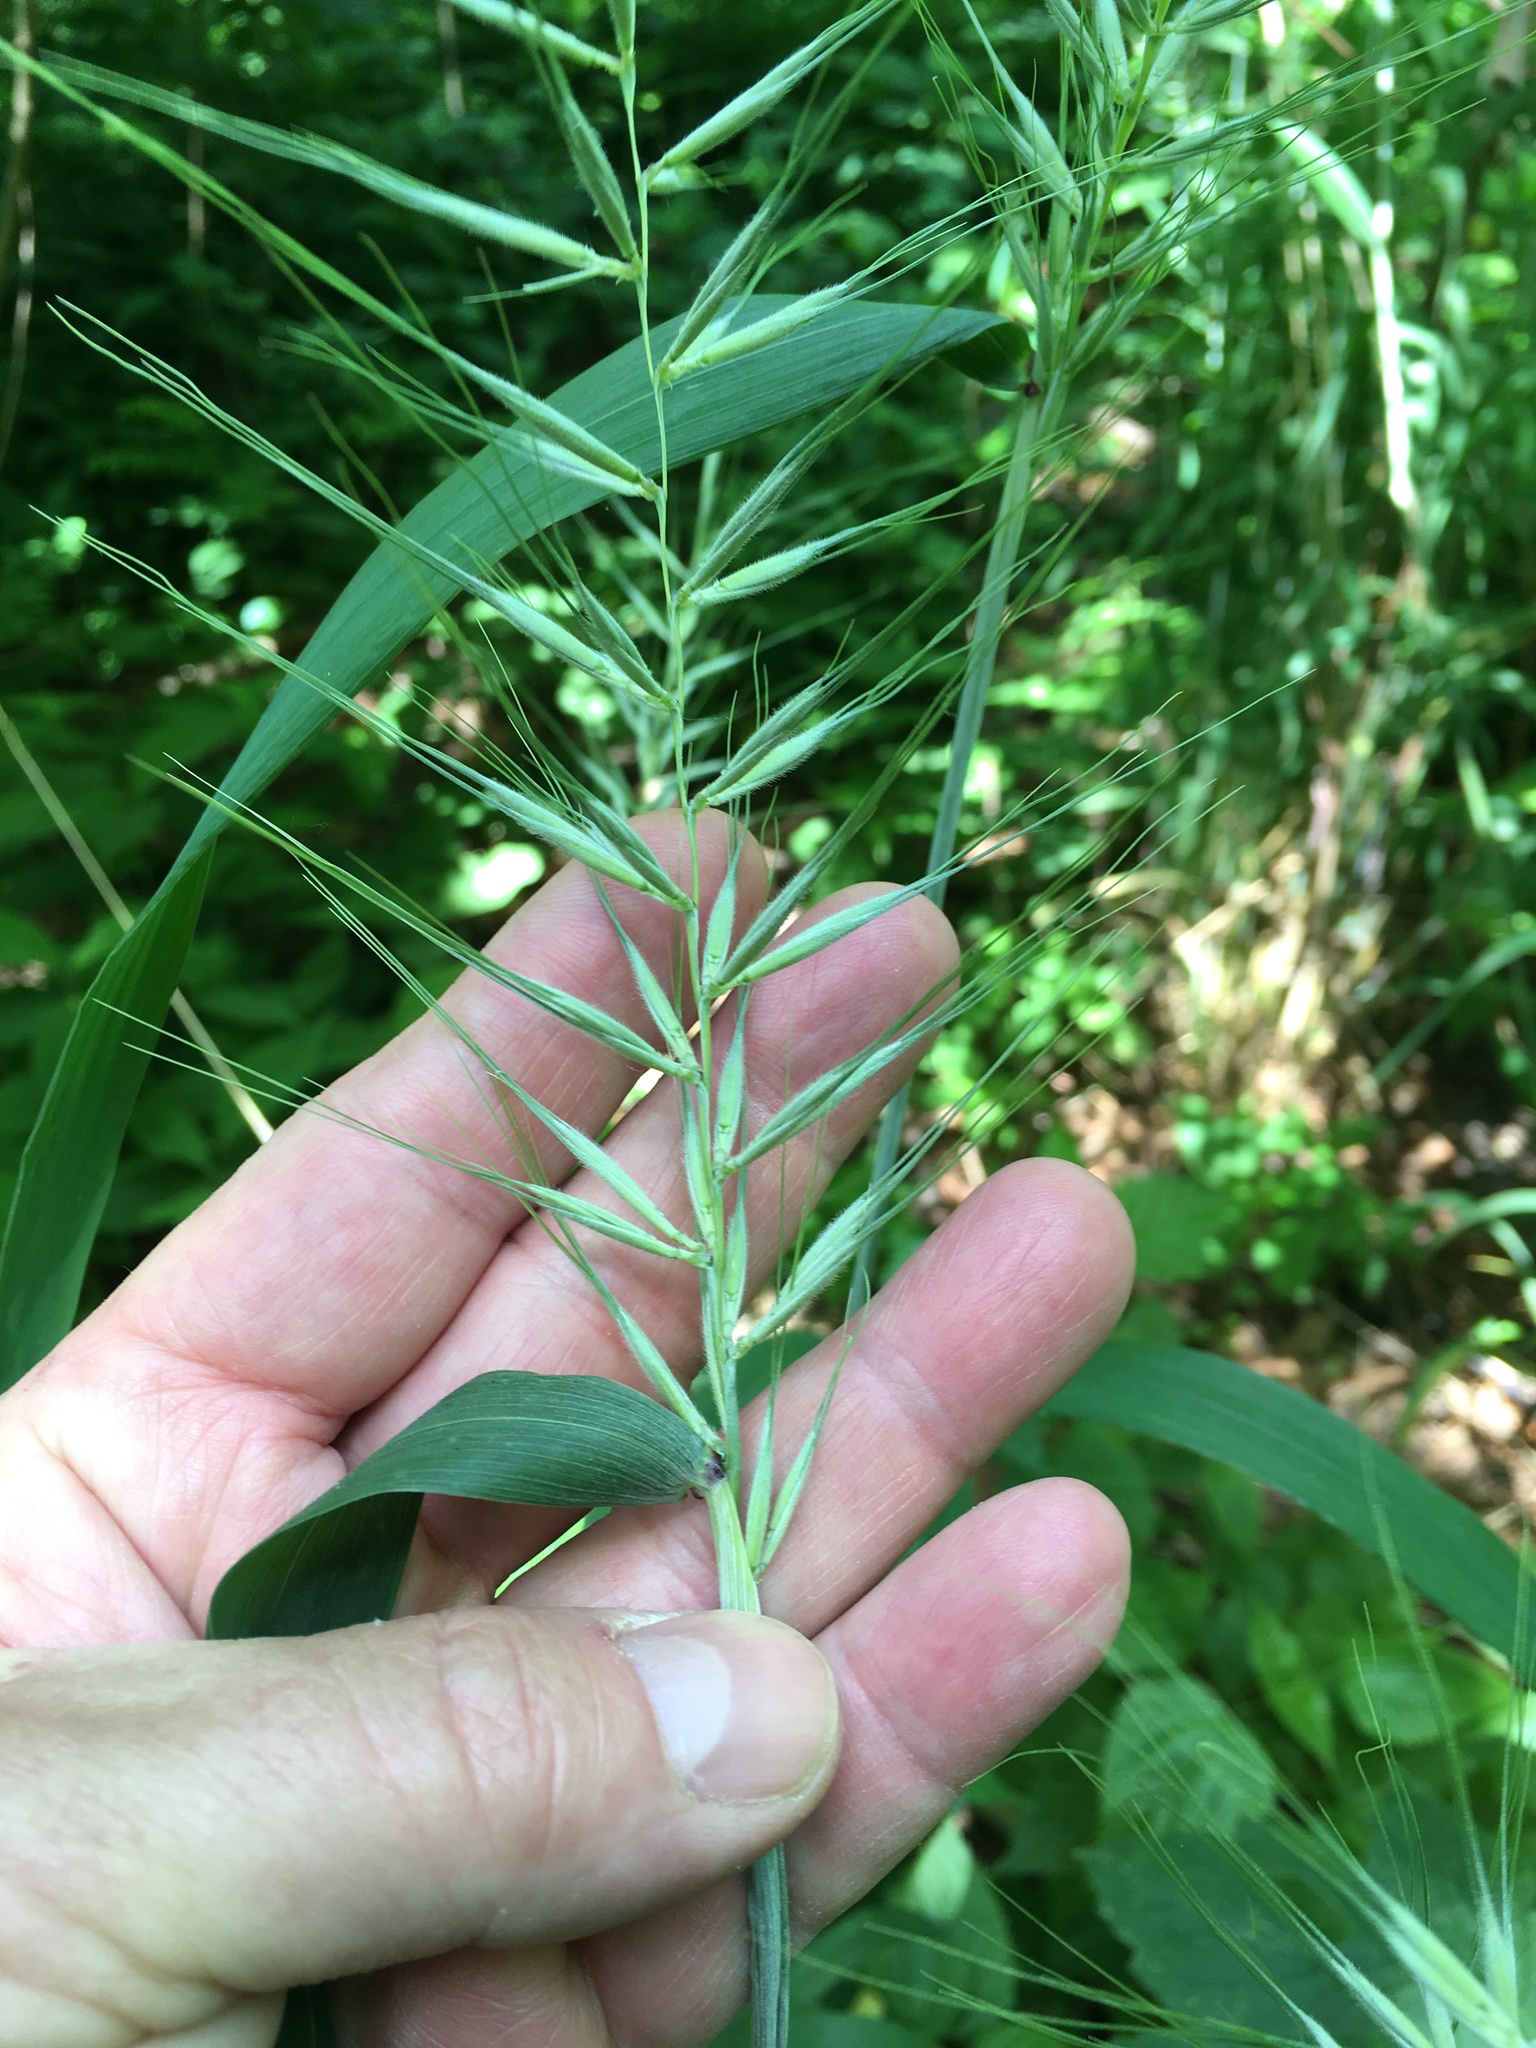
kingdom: Plantae
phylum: Tracheophyta
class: Liliopsida
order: Poales
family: Poaceae
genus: Elymus
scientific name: Elymus hystrix
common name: Bottlebrush grass
